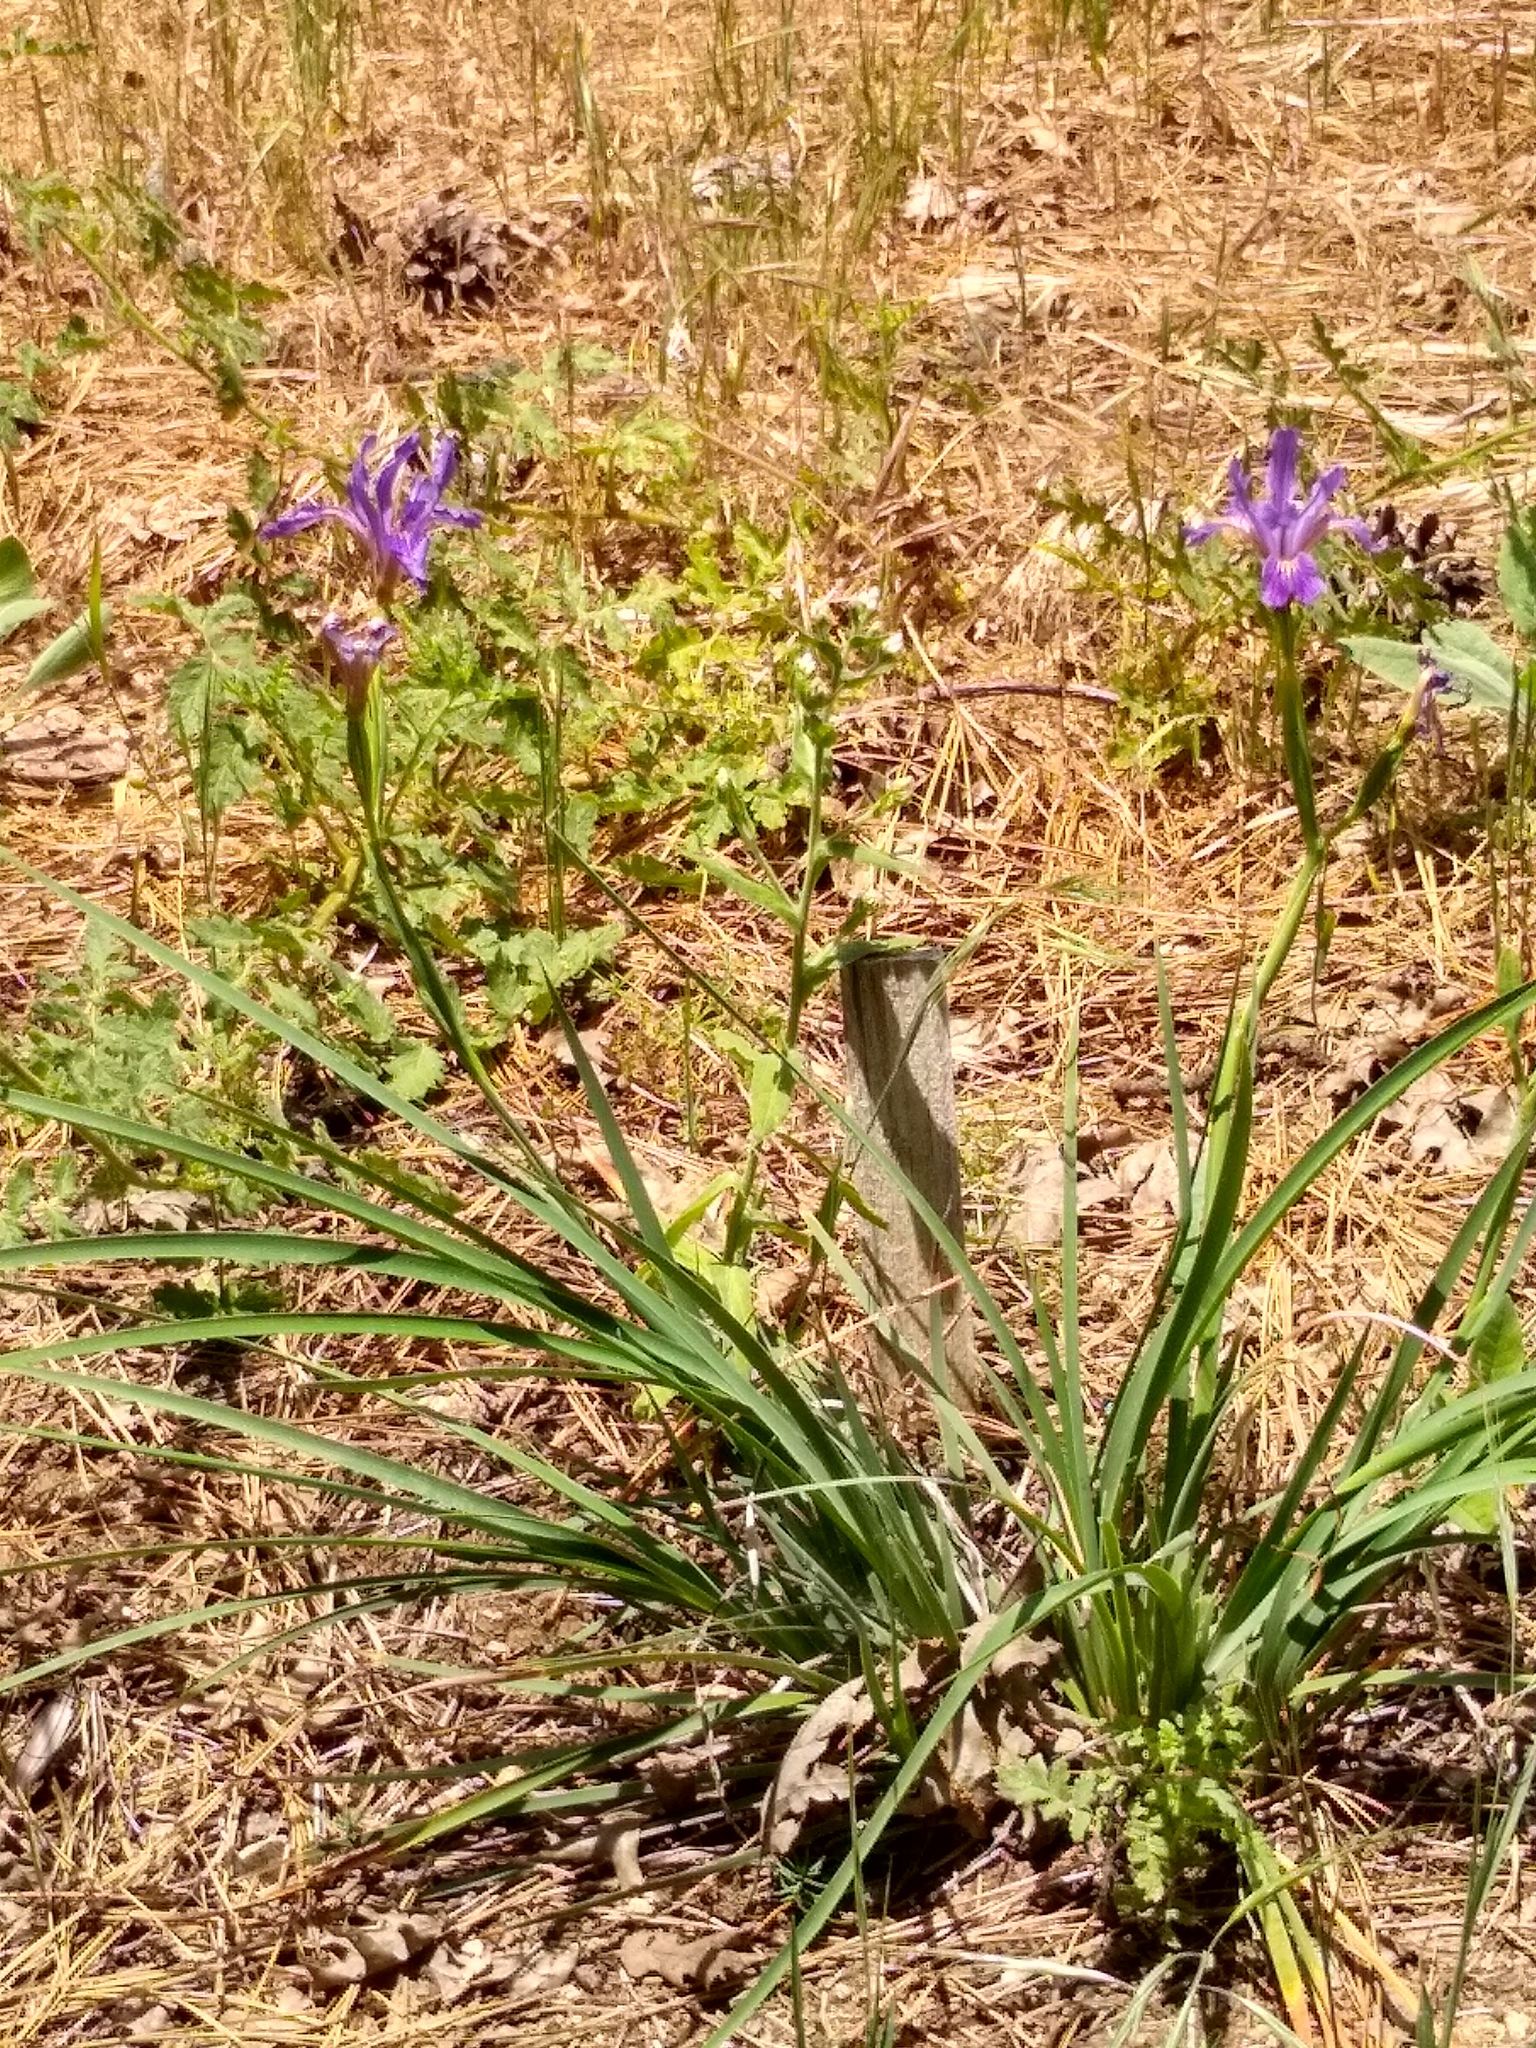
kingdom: Plantae
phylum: Tracheophyta
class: Liliopsida
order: Asparagales
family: Iridaceae
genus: Iris
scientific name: Iris hartwegii
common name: Sierra iris
